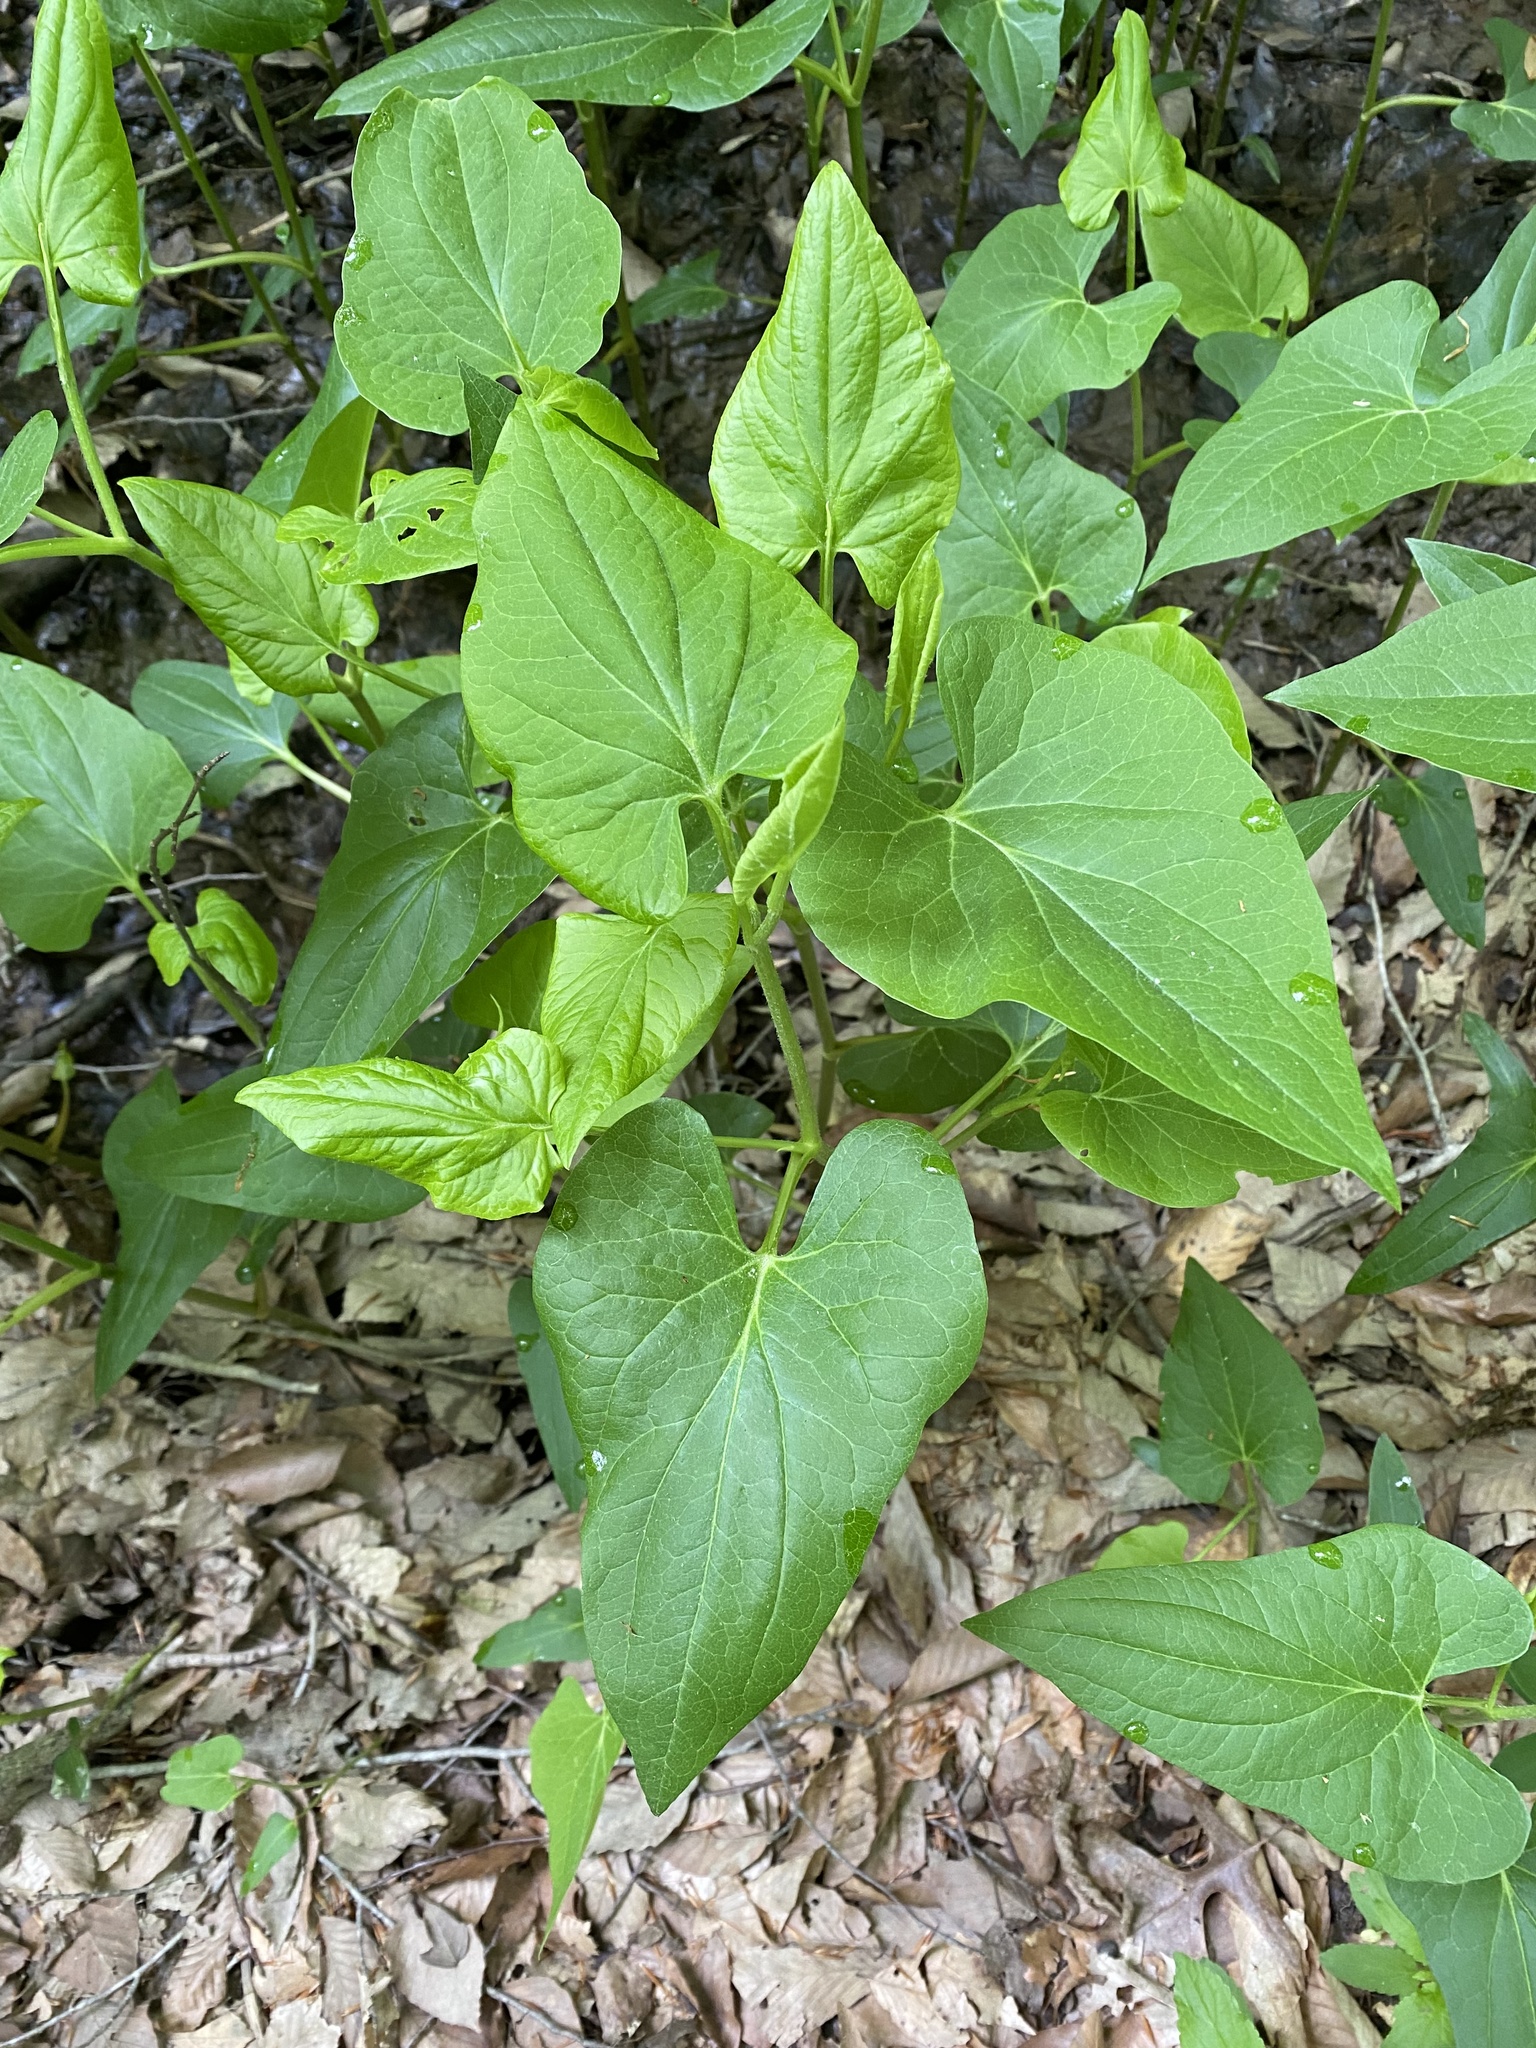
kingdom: Plantae
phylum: Tracheophyta
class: Magnoliopsida
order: Piperales
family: Saururaceae
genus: Saururus
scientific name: Saururus cernuus
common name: Lizard's-tail
